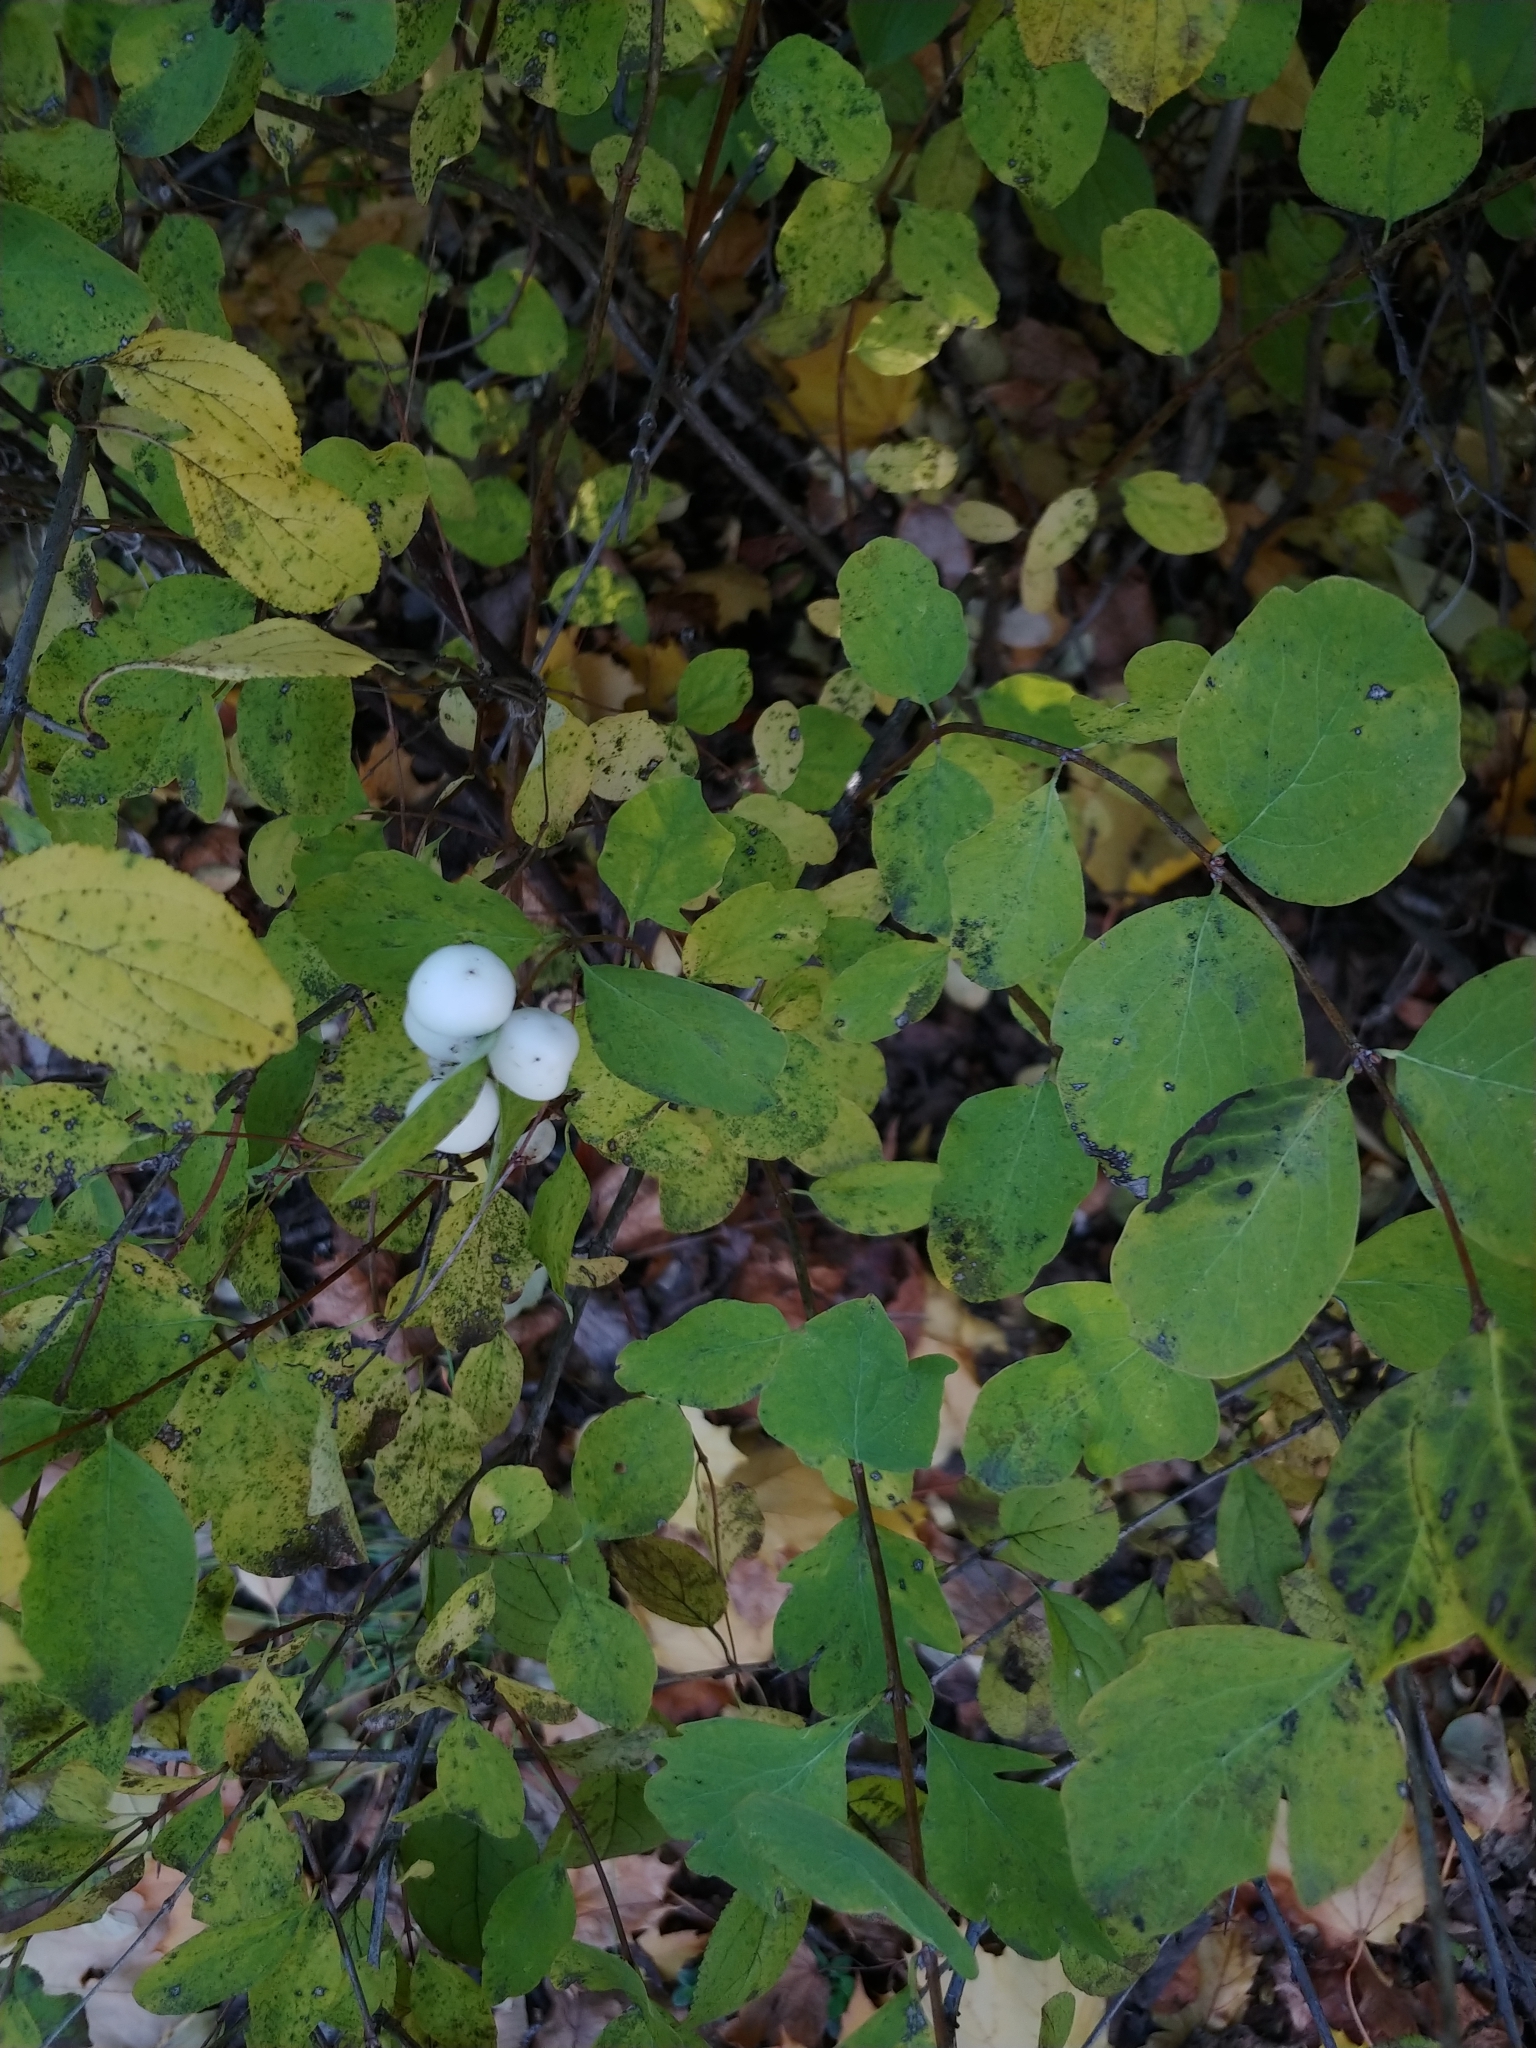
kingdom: Plantae
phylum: Tracheophyta
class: Magnoliopsida
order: Dipsacales
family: Caprifoliaceae
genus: Symphoricarpos
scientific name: Symphoricarpos albus
